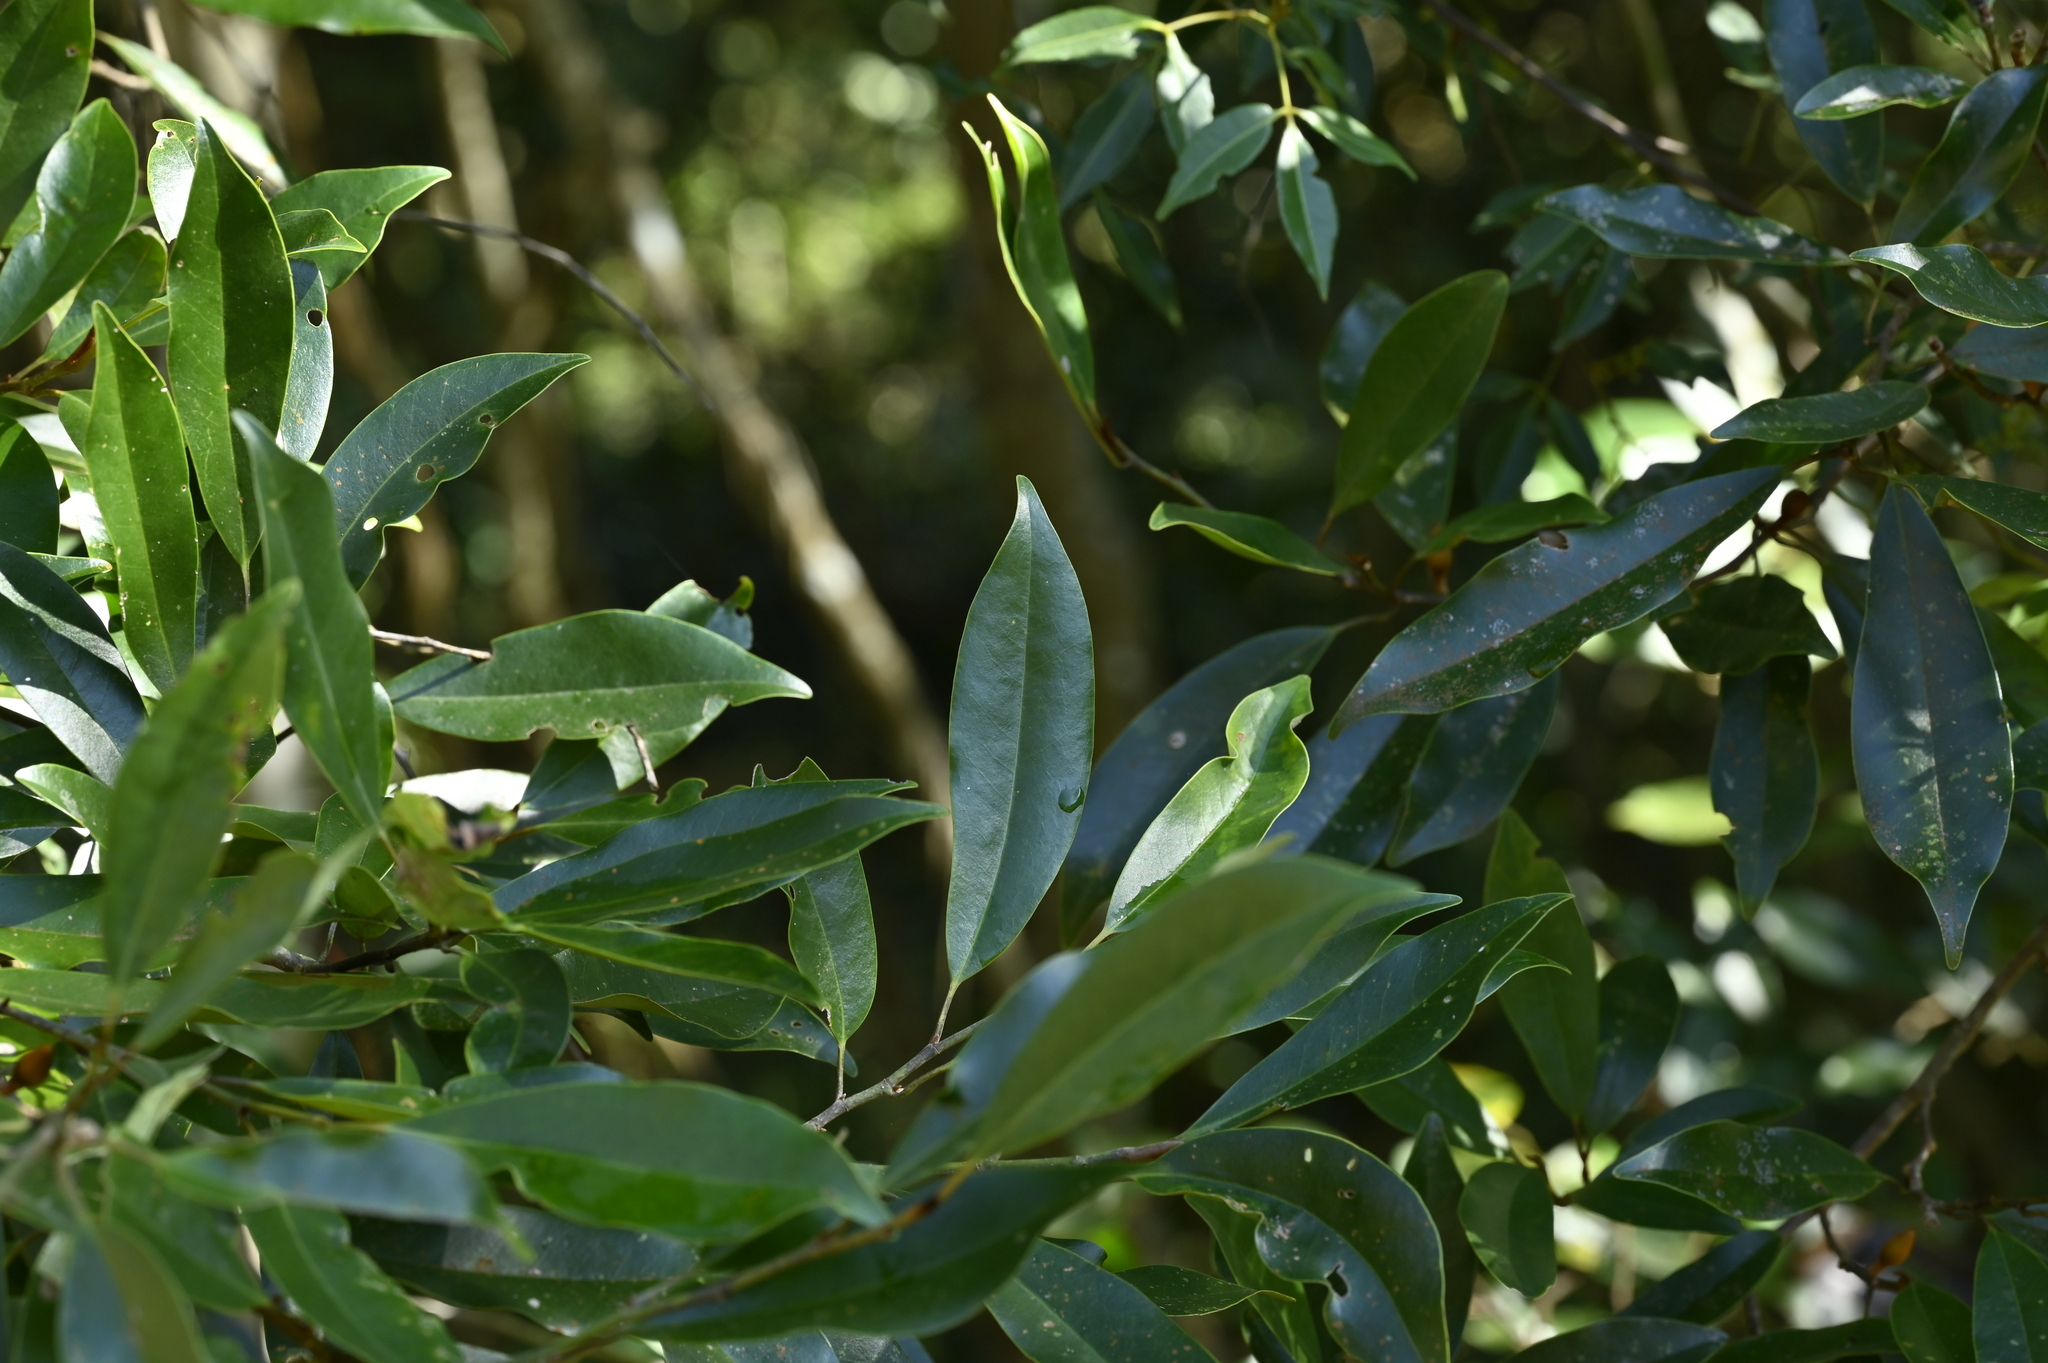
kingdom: Plantae
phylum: Tracheophyta
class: Magnoliopsida
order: Magnoliales
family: Magnoliaceae
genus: Magnolia
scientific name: Magnolia compressa
